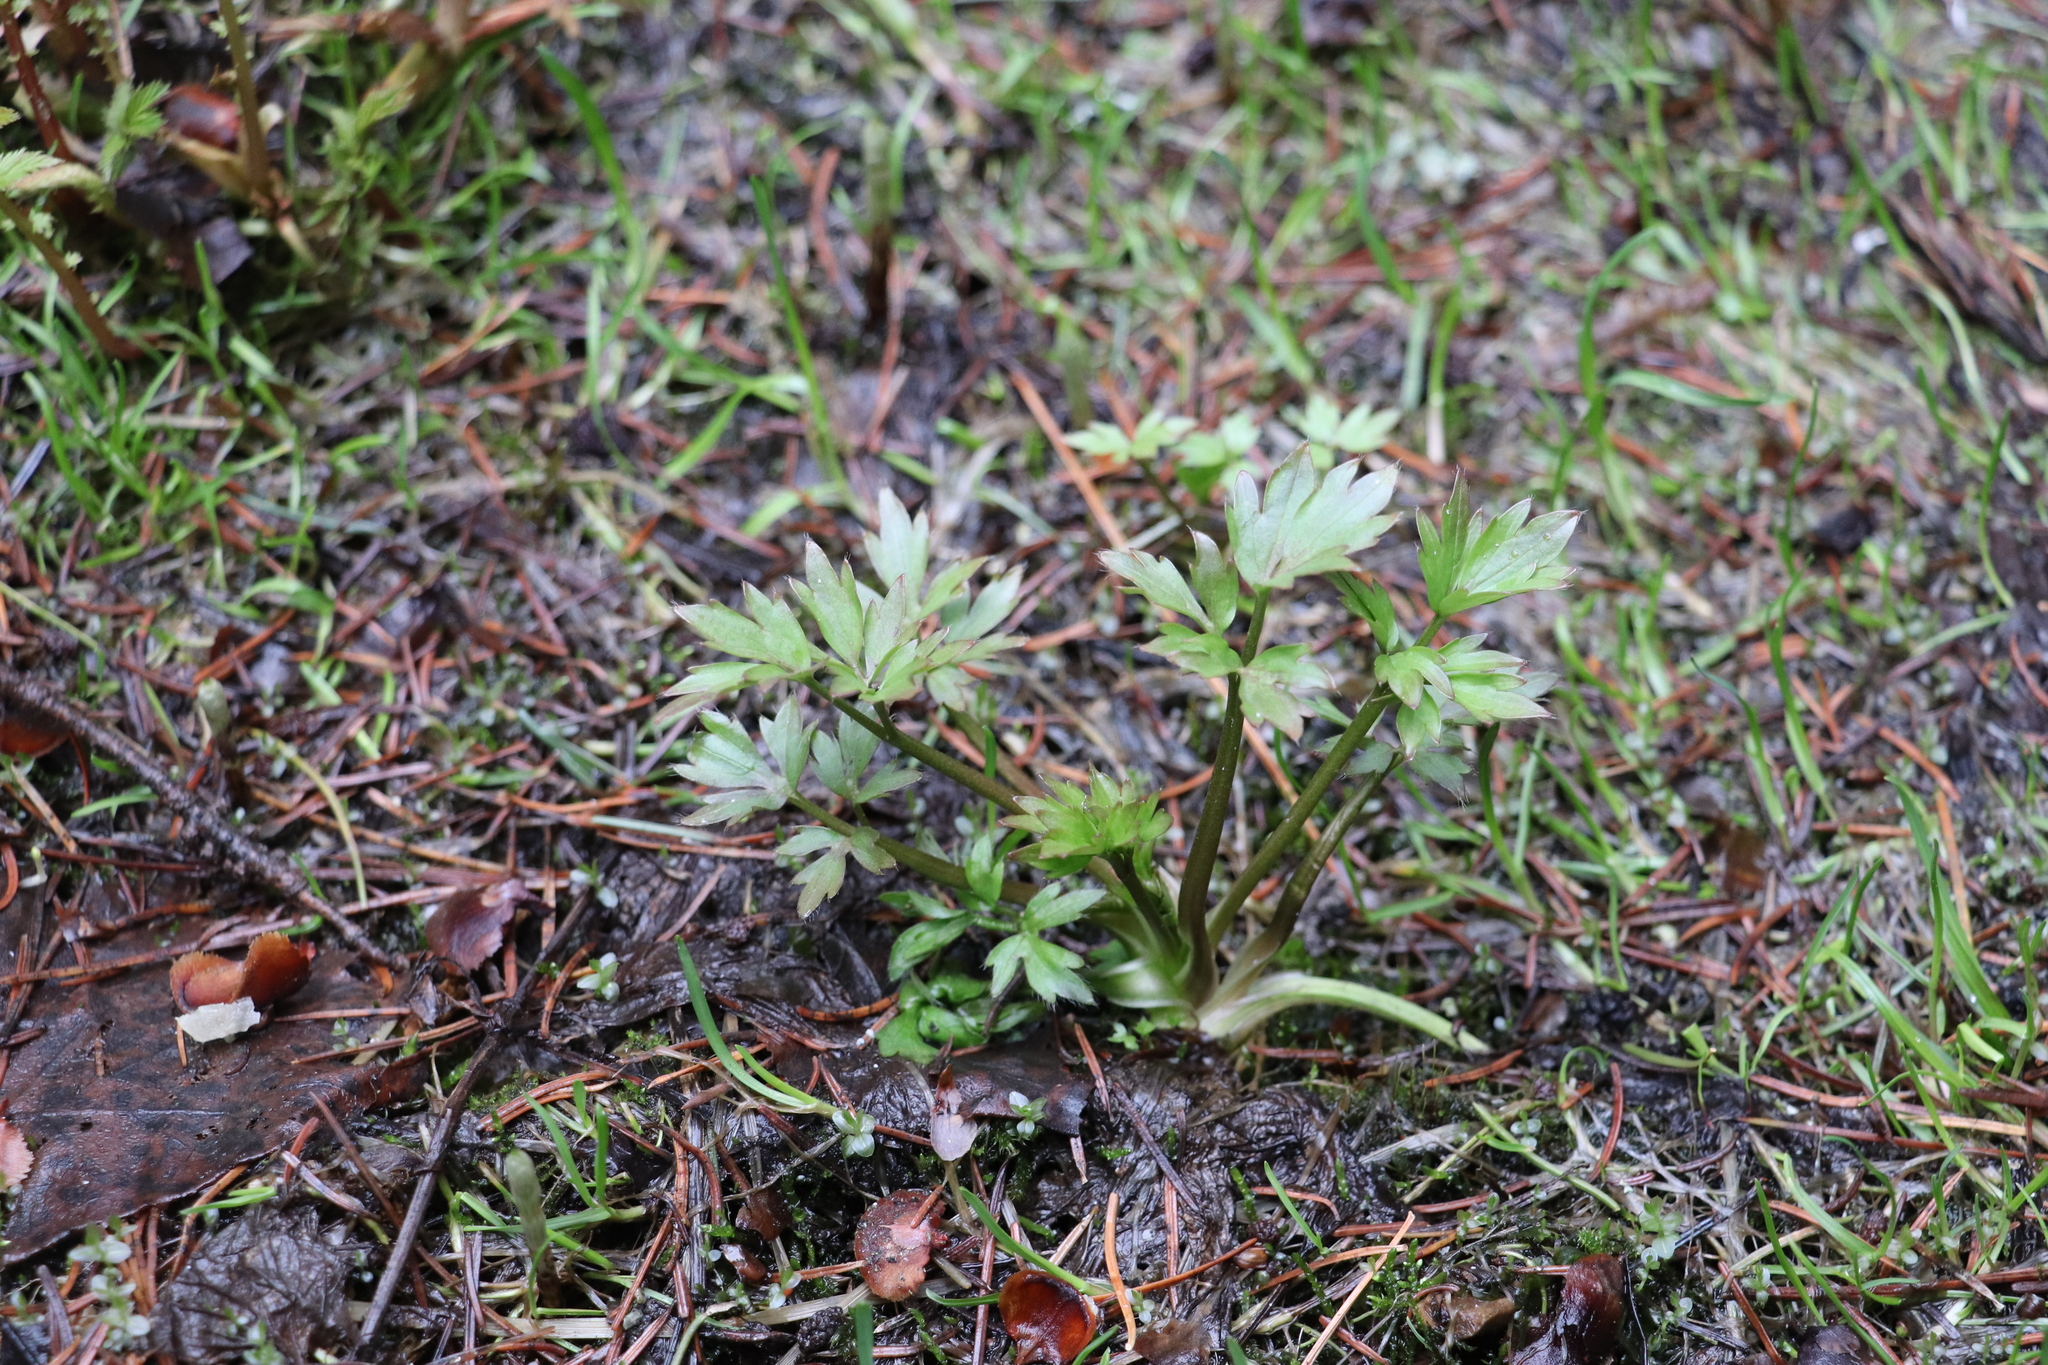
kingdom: Plantae
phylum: Tracheophyta
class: Magnoliopsida
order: Ranunculales
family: Ranunculaceae
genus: Ranunculus
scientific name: Ranunculus repens
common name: Creeping buttercup
